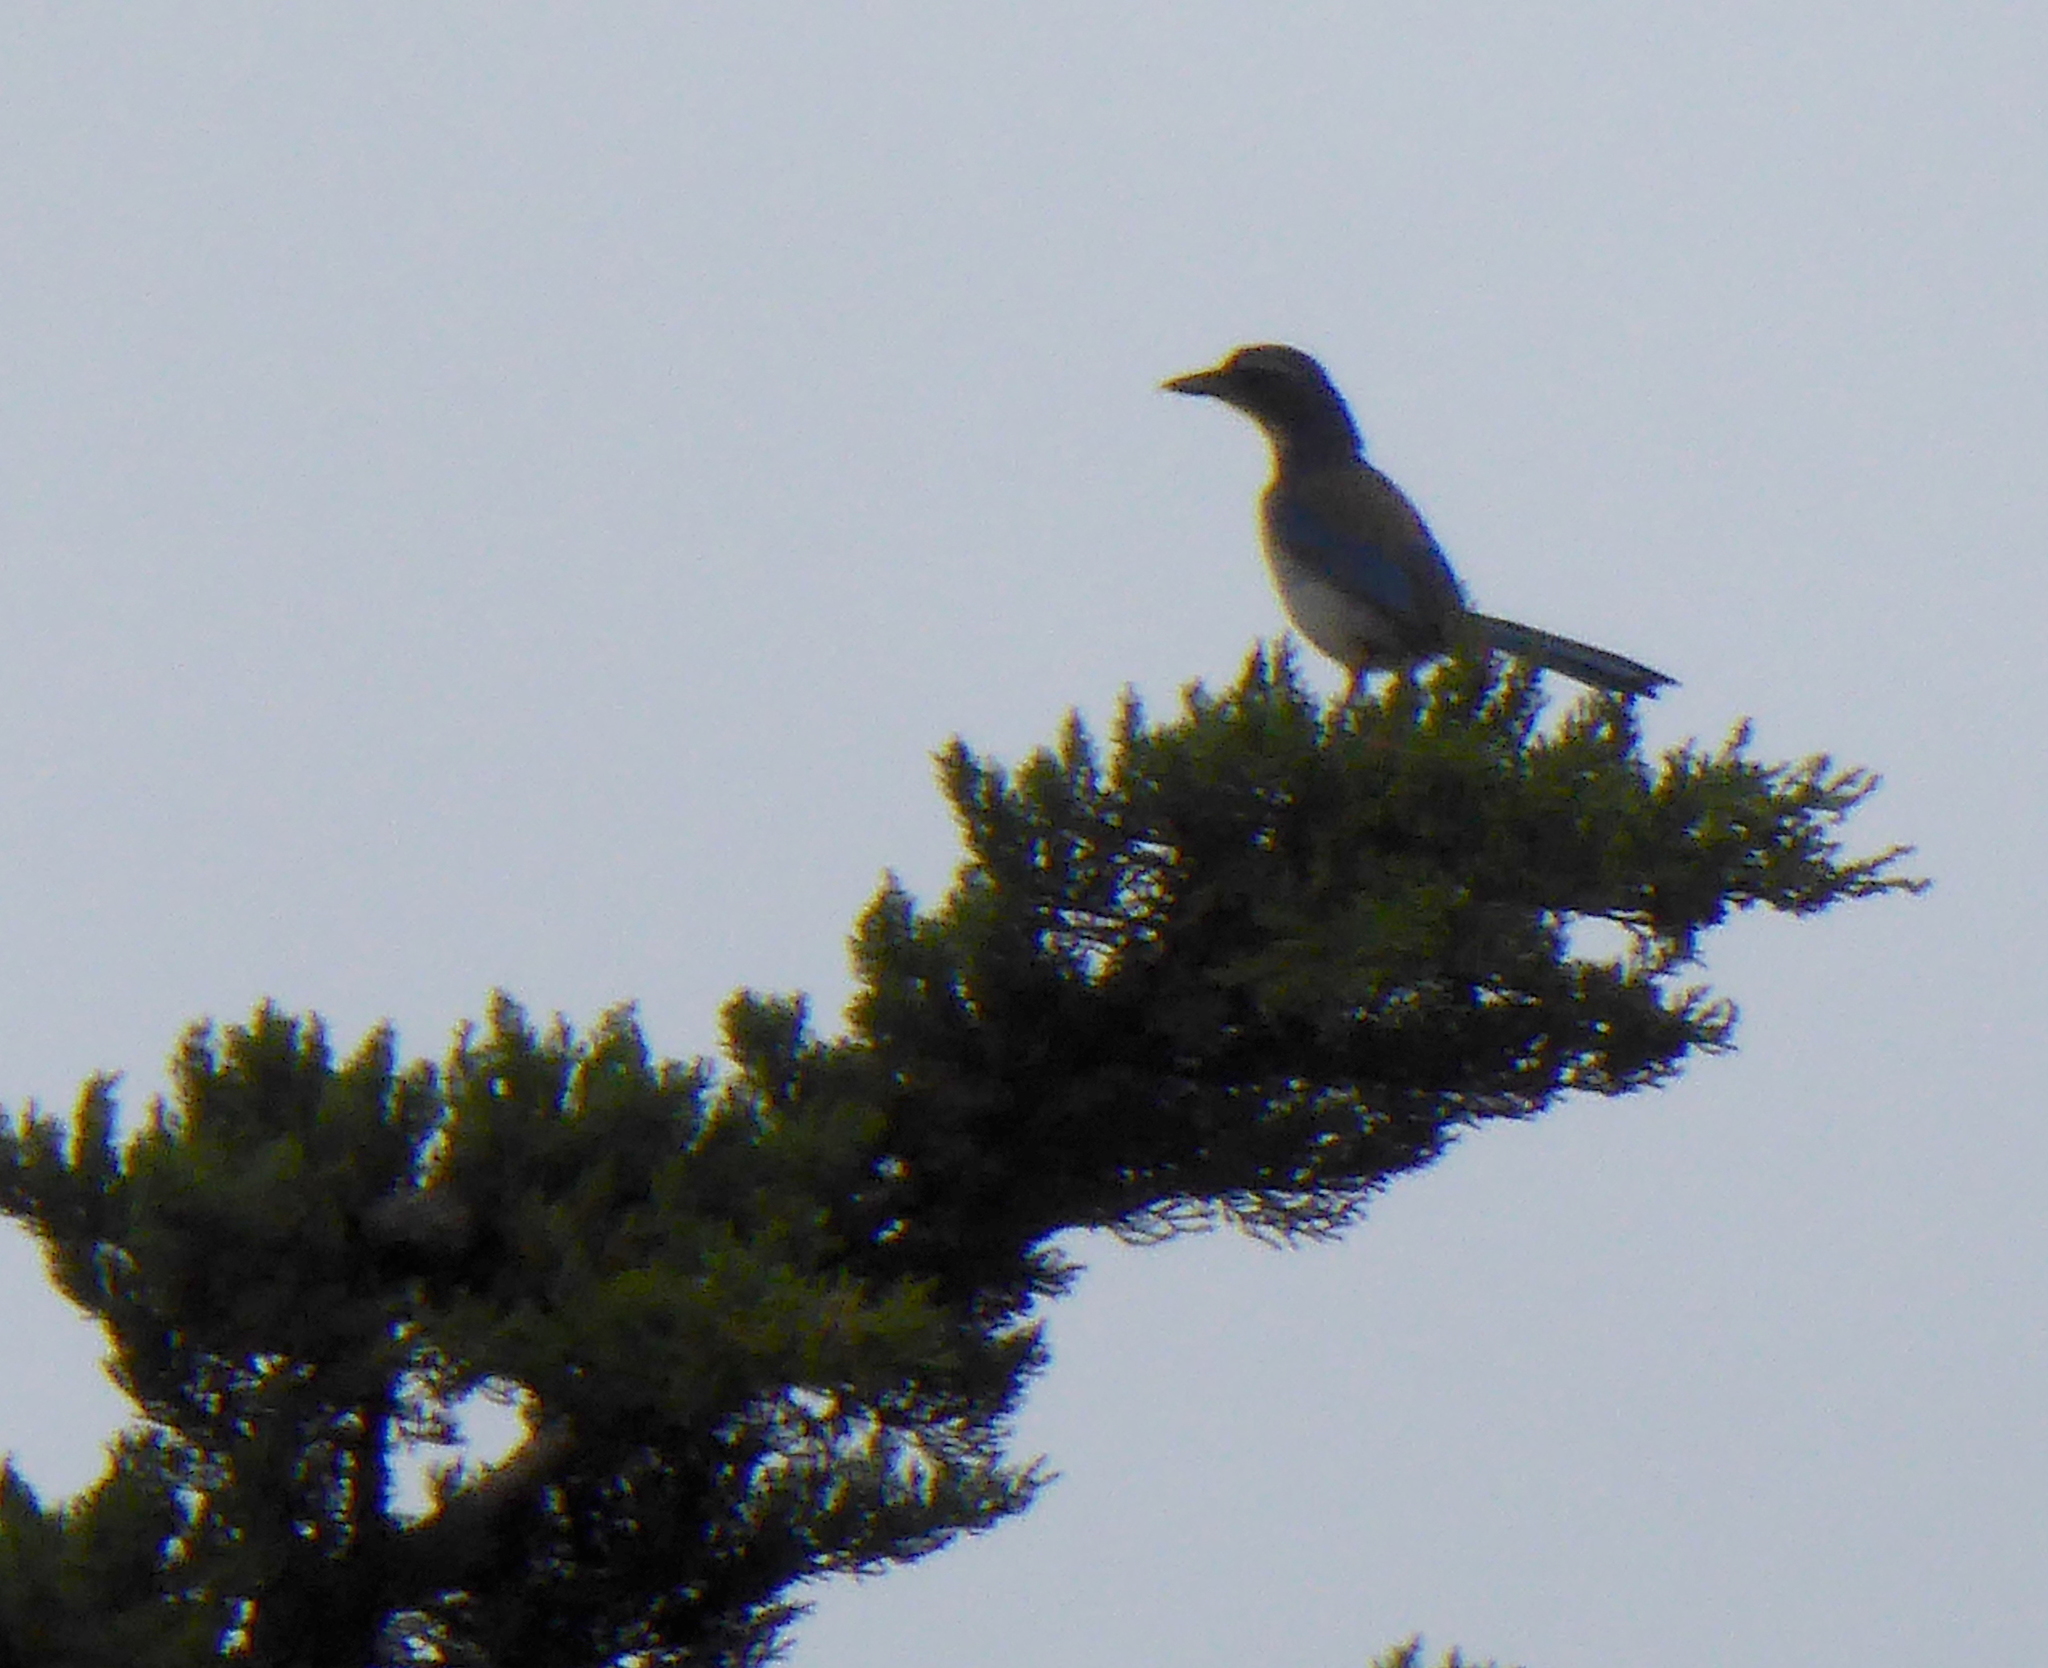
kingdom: Animalia
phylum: Chordata
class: Aves
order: Passeriformes
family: Corvidae
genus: Aphelocoma
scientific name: Aphelocoma californica
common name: California scrub-jay
